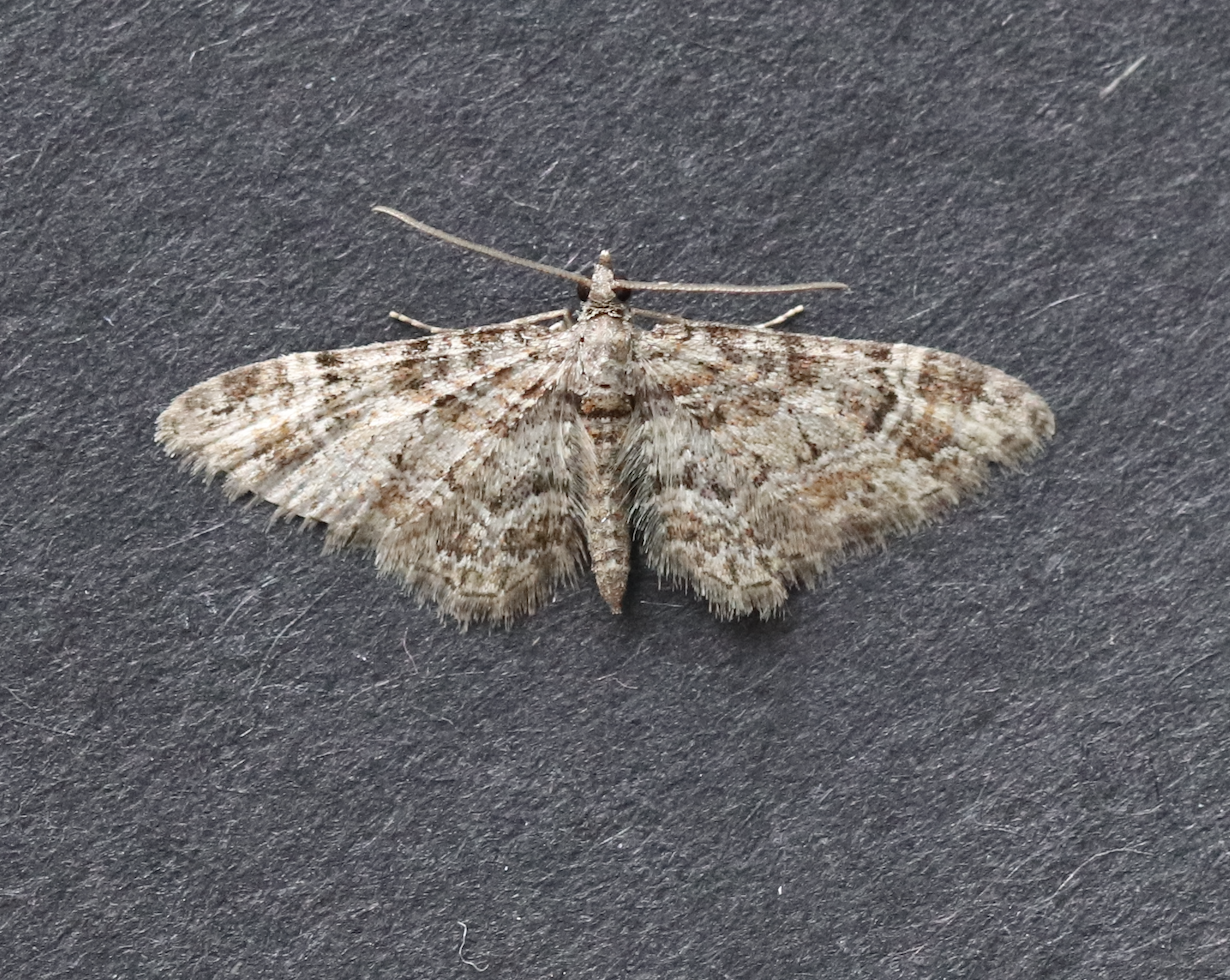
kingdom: Animalia
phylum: Arthropoda
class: Insecta
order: Lepidoptera
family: Geometridae
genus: Gymnoscelis
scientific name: Gymnoscelis rufifasciata
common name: Double-striped pug
